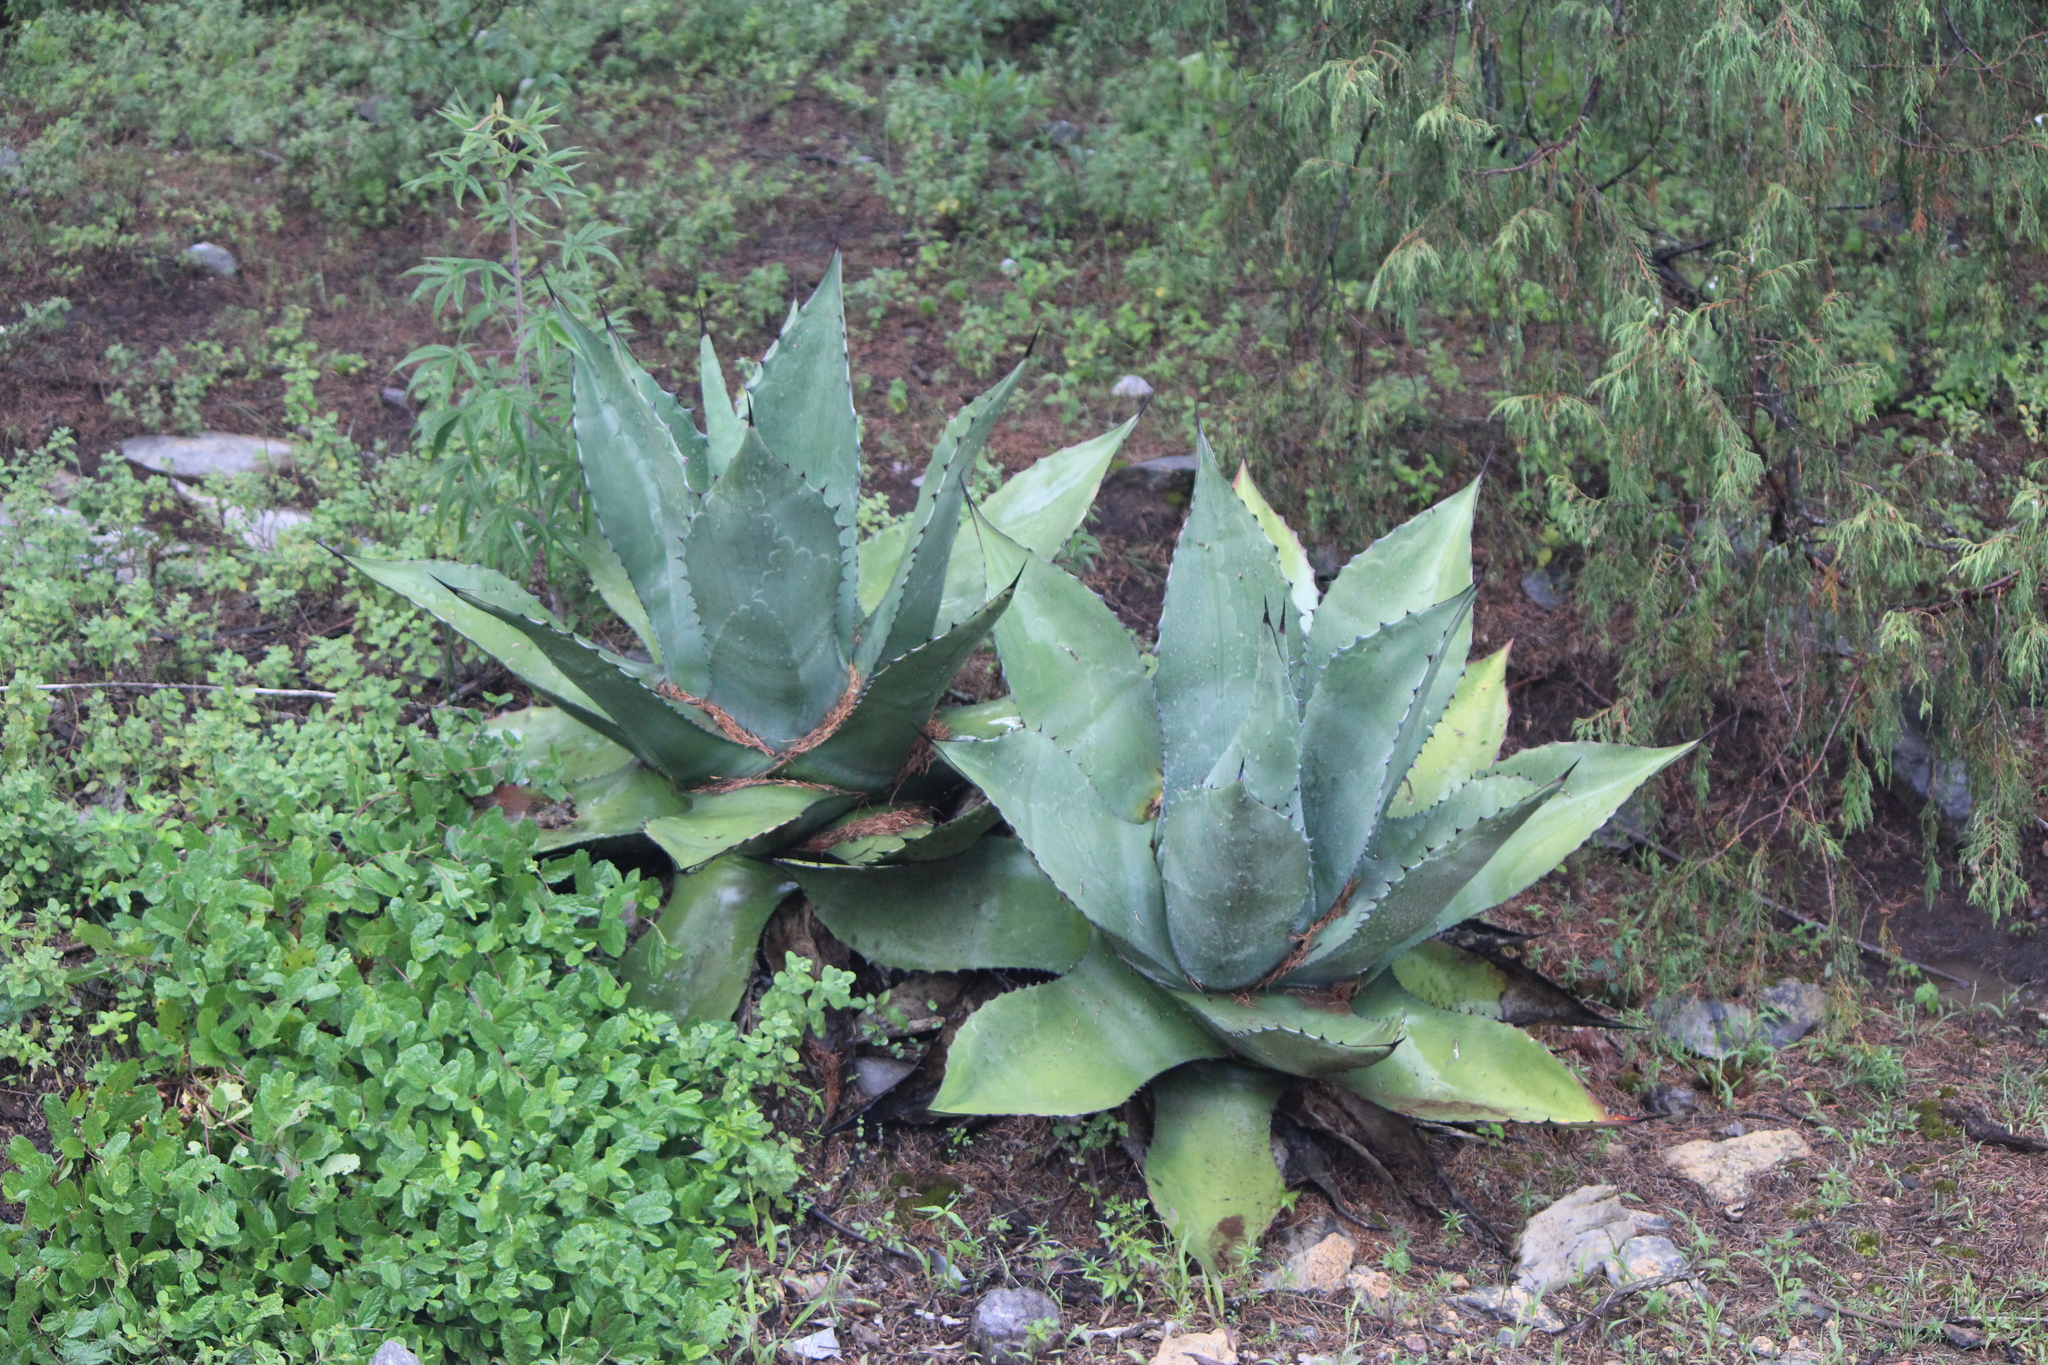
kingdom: Plantae
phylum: Tracheophyta
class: Liliopsida
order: Asparagales
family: Asparagaceae
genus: Agave
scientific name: Agave salmiana
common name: Pulque agave
